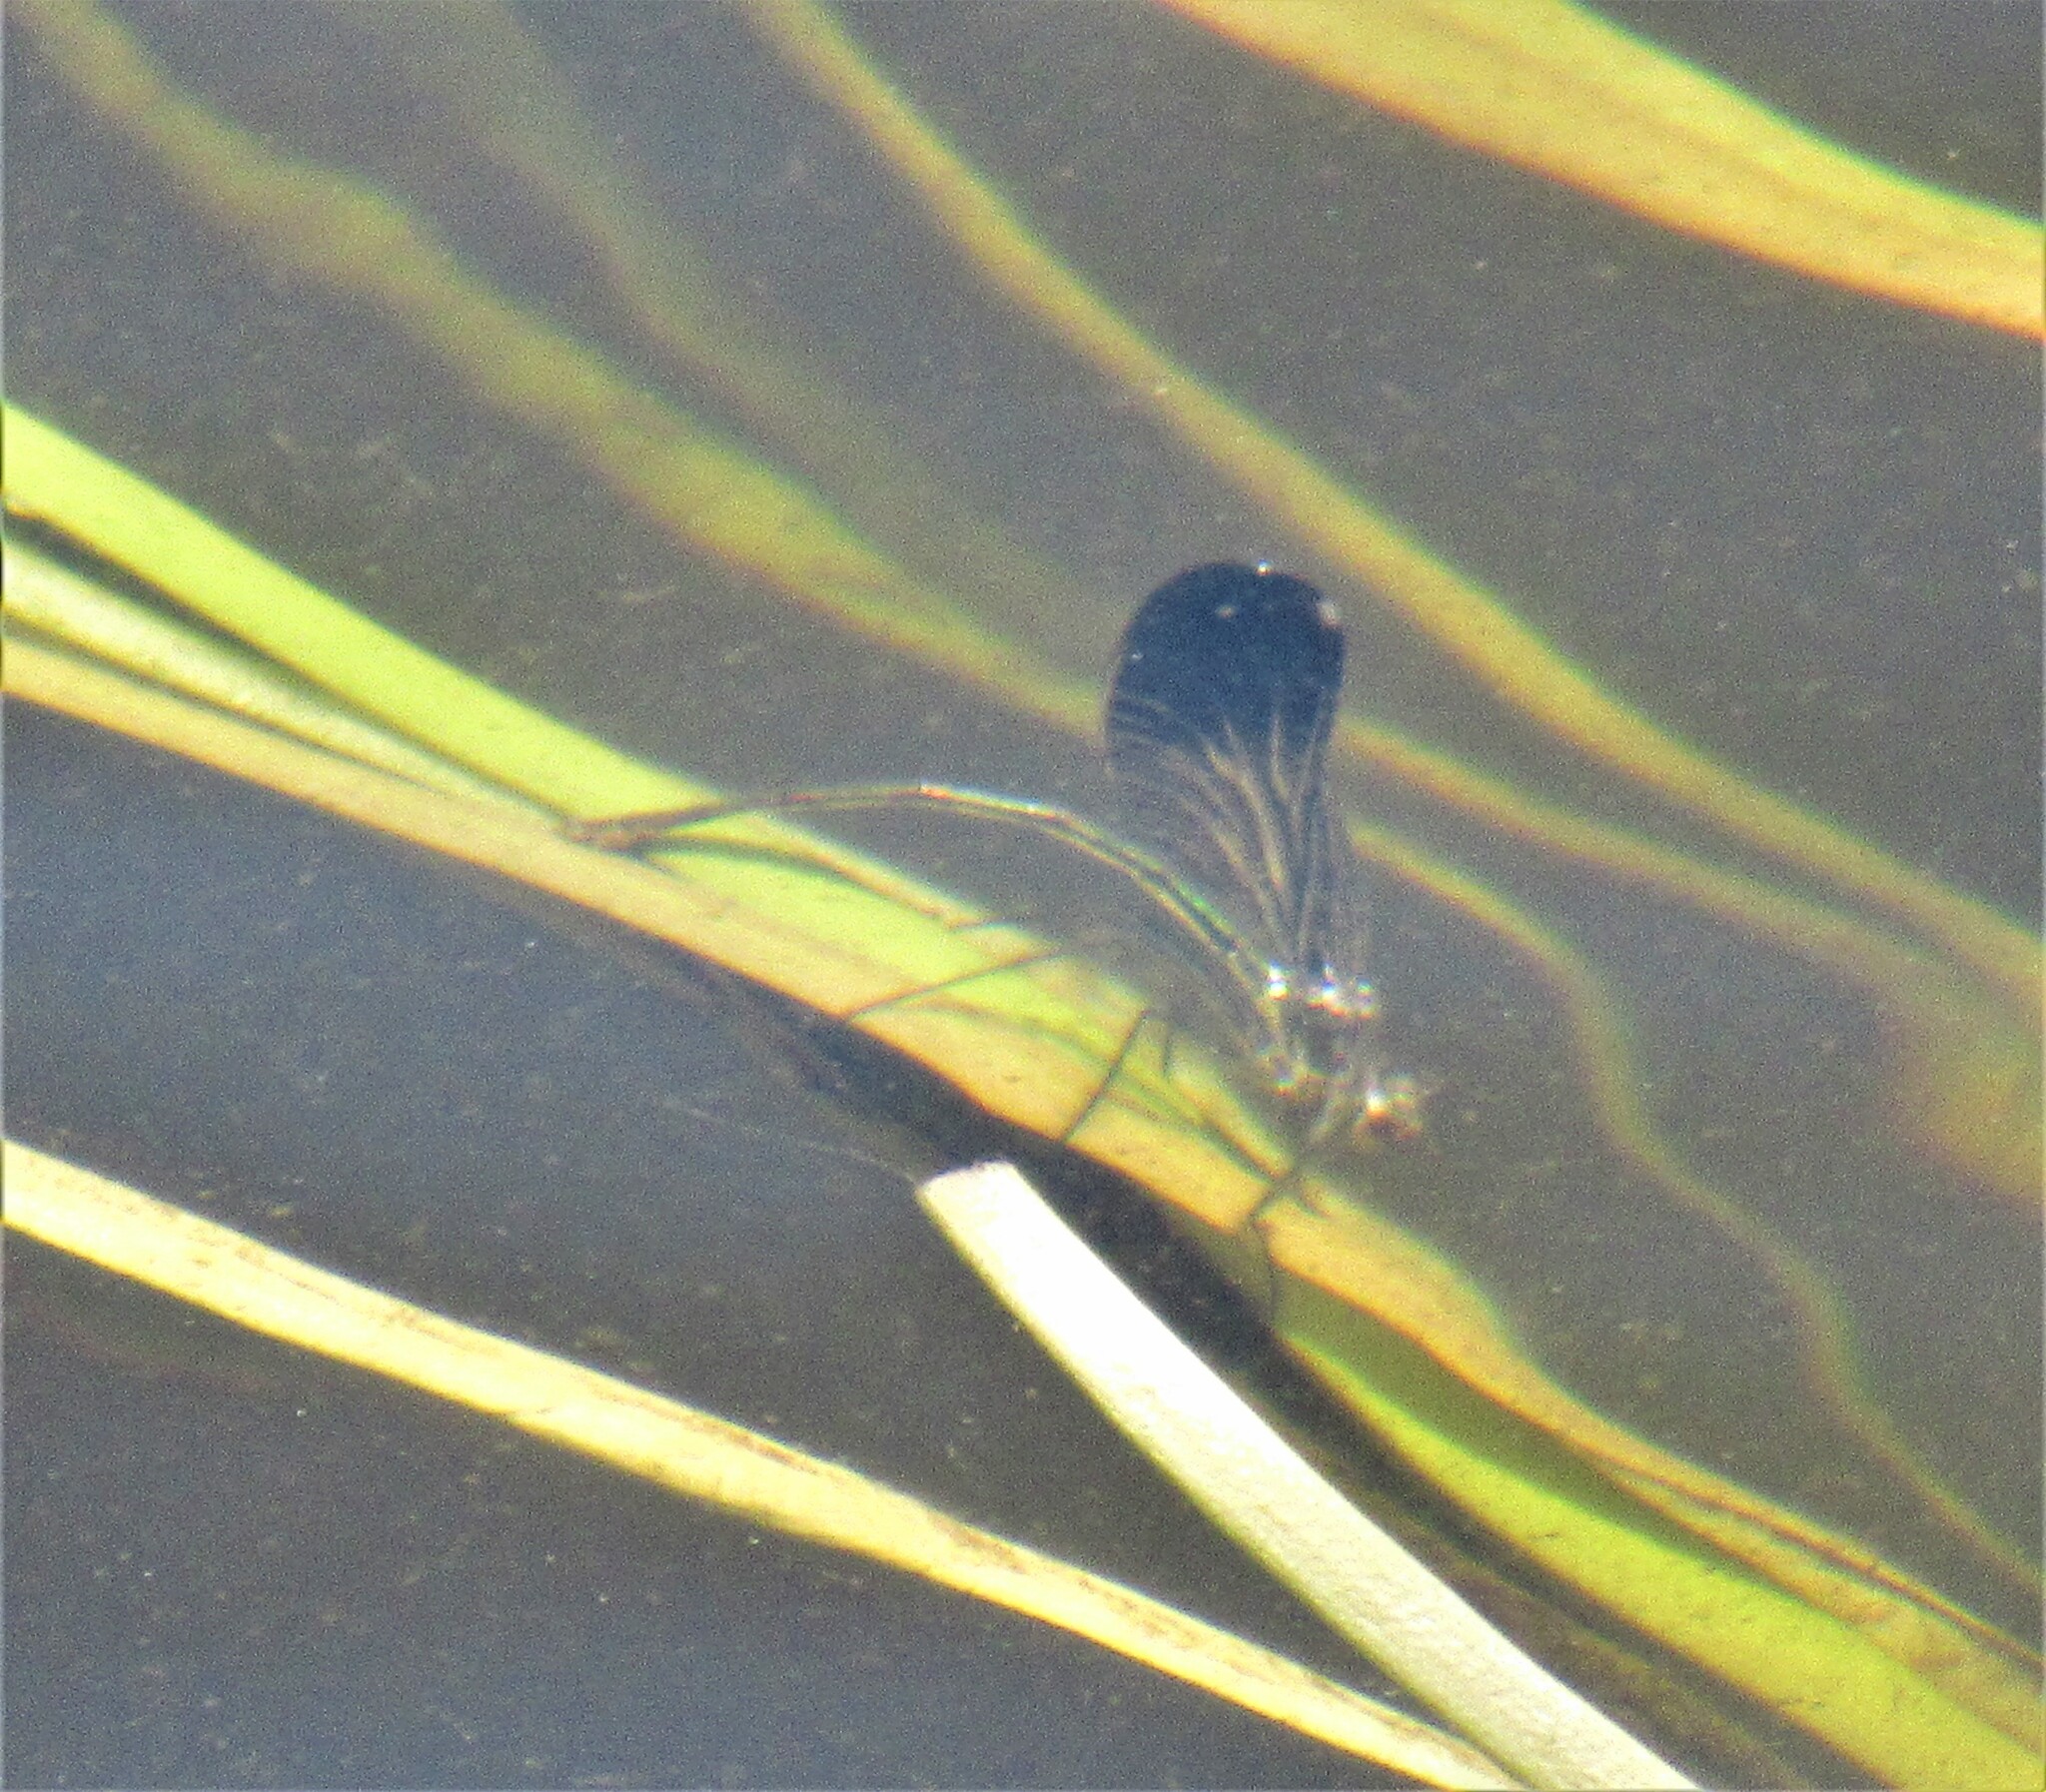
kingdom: Animalia
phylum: Arthropoda
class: Insecta
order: Odonata
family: Calopterygidae
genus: Calopteryx
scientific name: Calopteryx aequabilis
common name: River jewelwing
